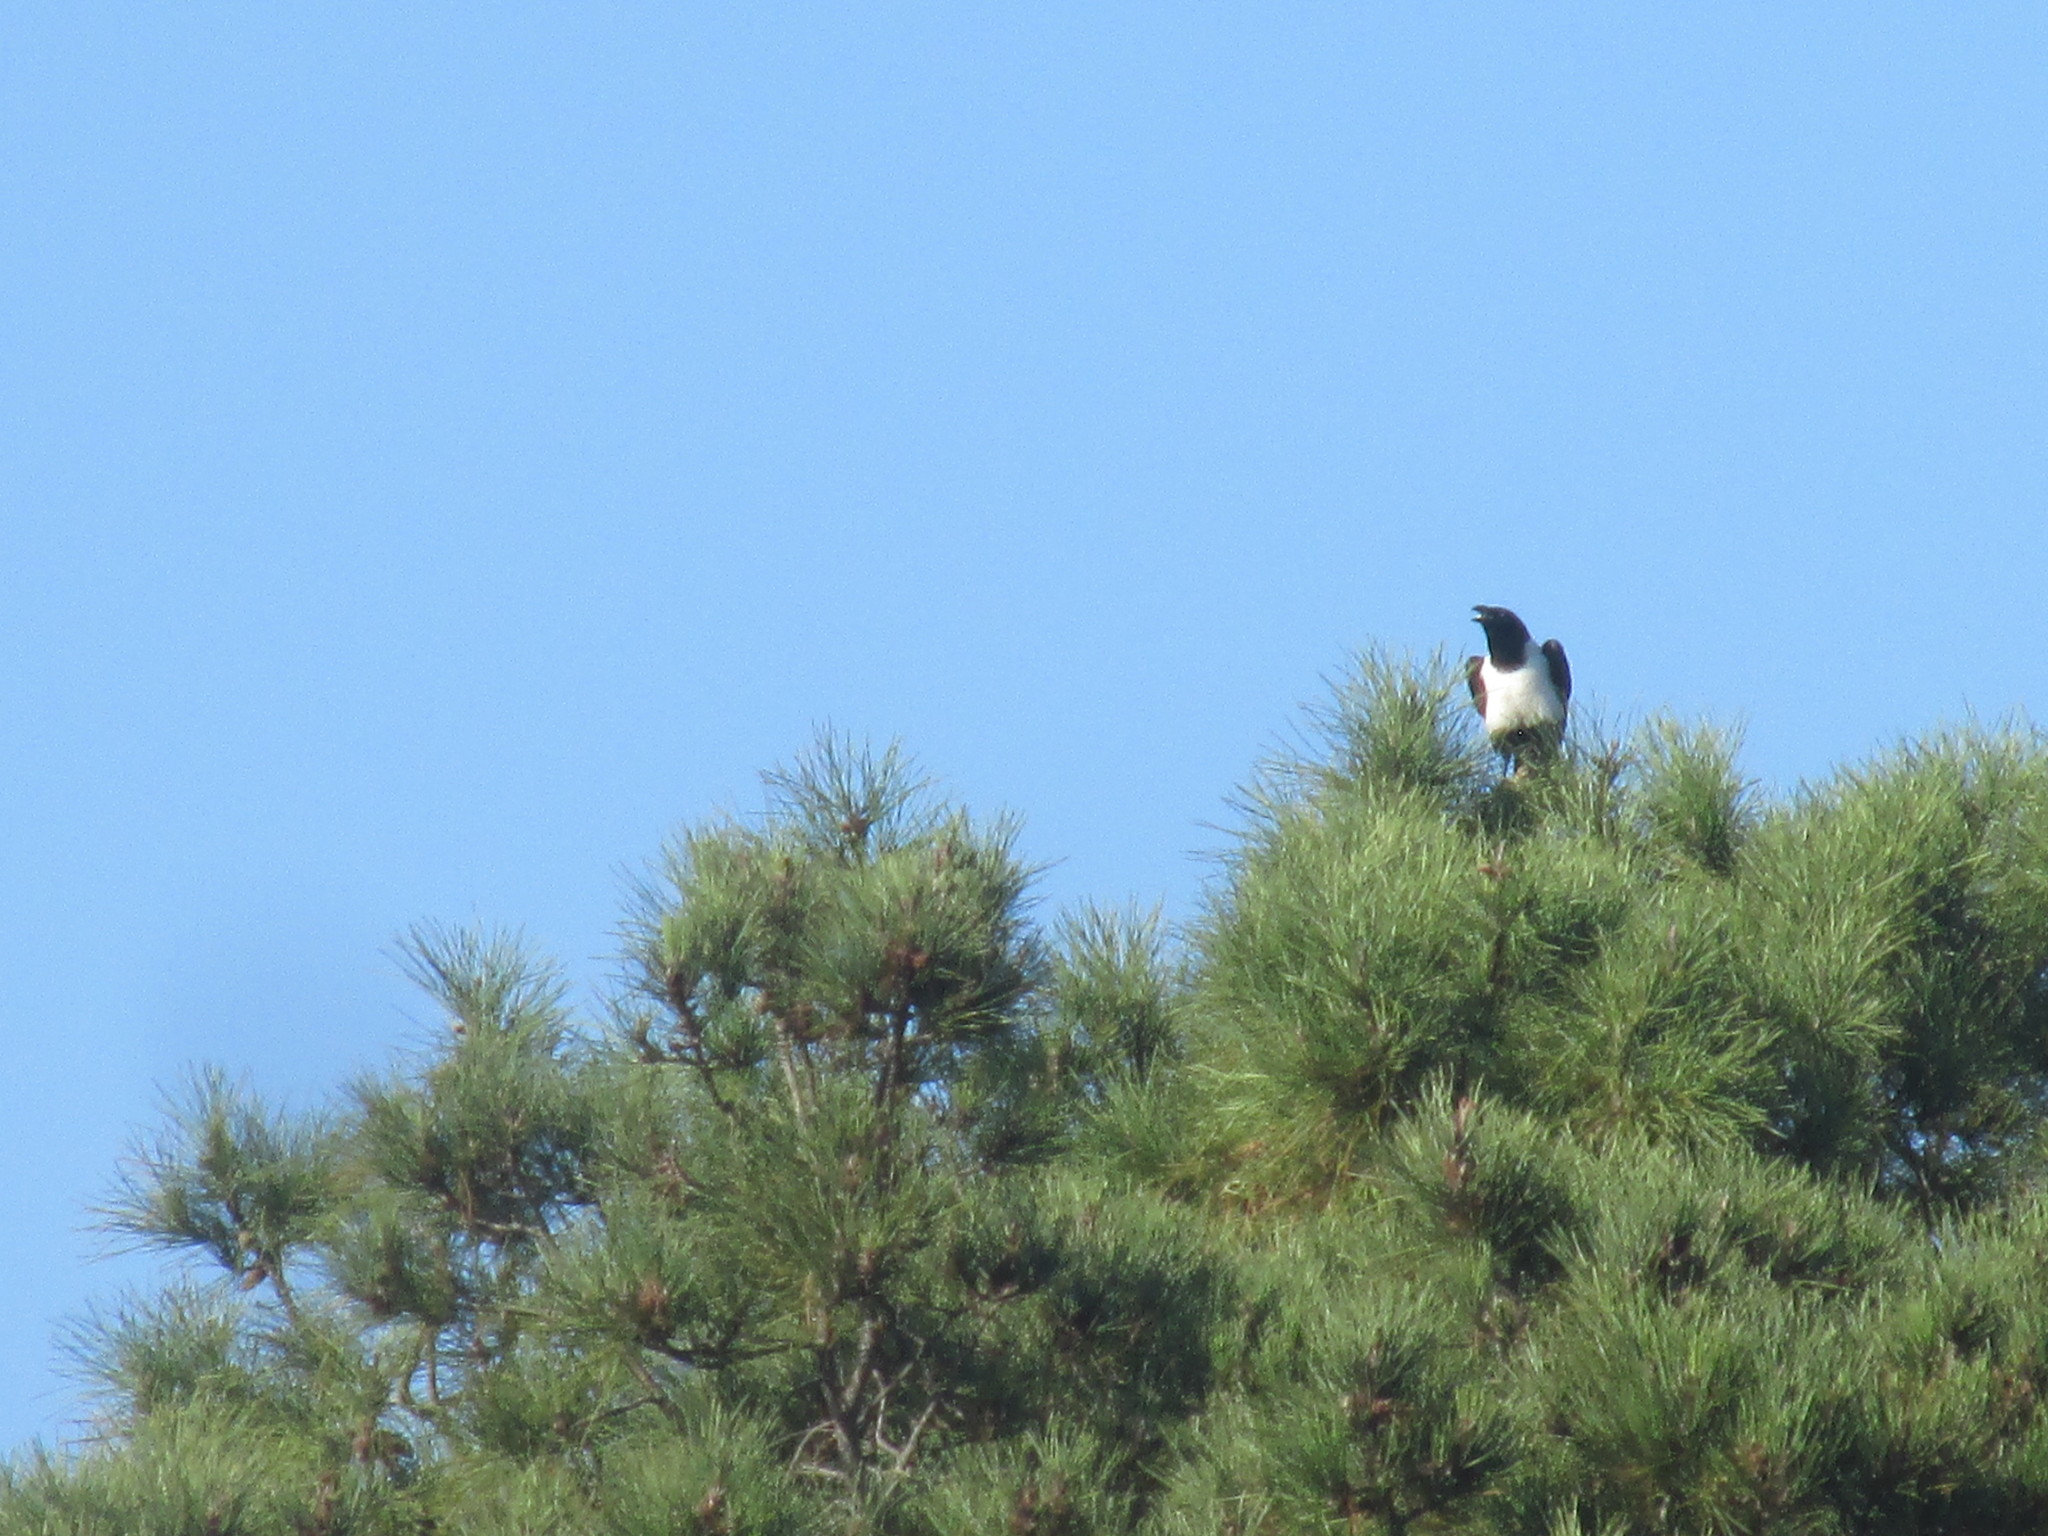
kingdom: Animalia
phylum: Chordata
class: Aves
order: Passeriformes
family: Corvidae
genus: Corvus
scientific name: Corvus albus
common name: Pied crow
